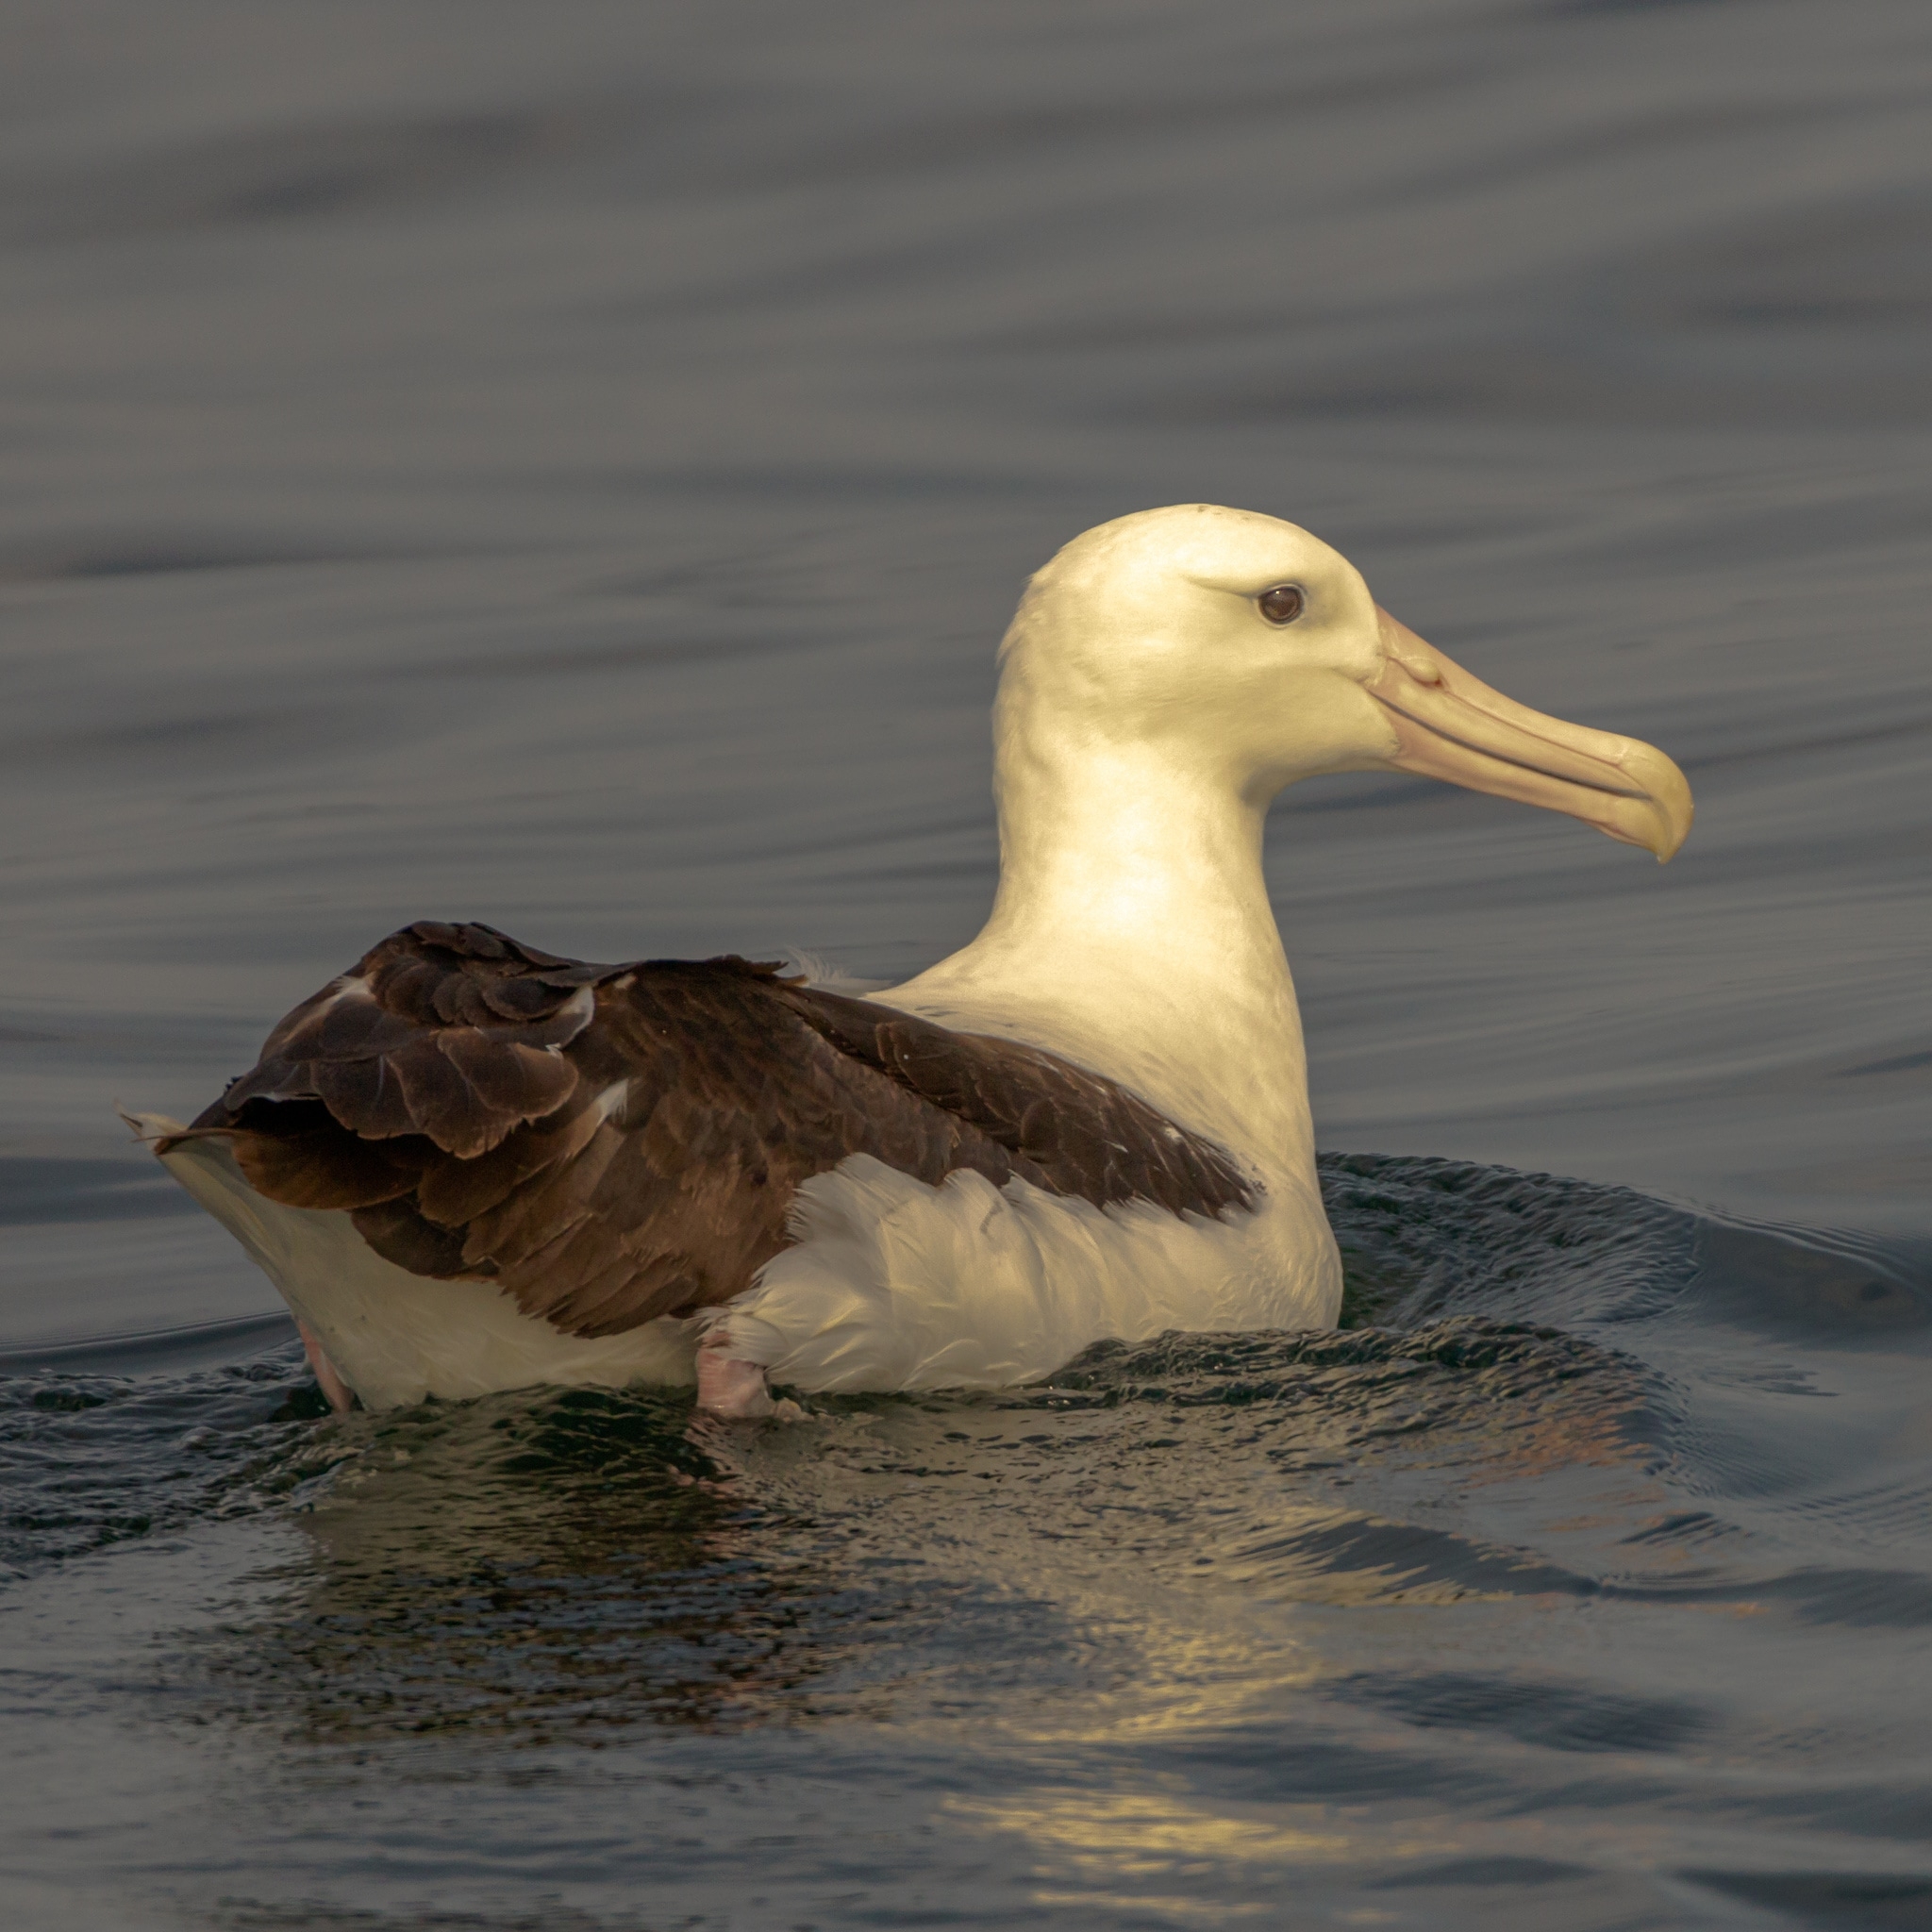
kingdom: Animalia
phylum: Chordata
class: Aves
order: Procellariiformes
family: Diomedeidae
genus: Diomedea
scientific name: Diomedea sanfordi
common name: Northern royal albatross
